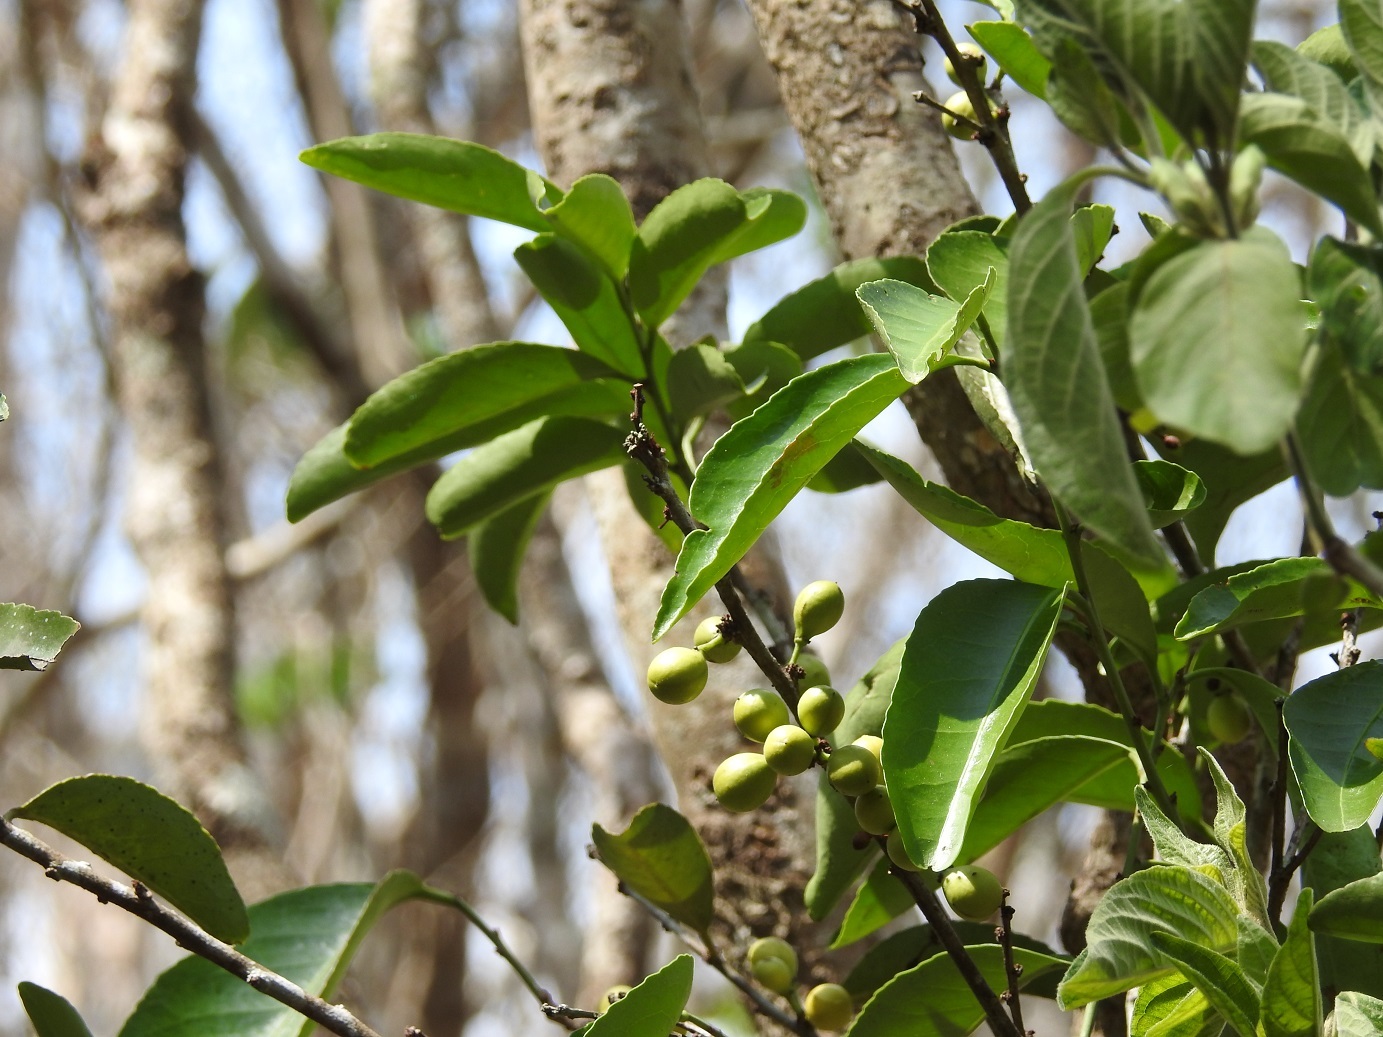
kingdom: Plantae
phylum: Tracheophyta
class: Magnoliopsida
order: Celastrales
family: Celastraceae
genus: Monteverdia
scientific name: Monteverdia stipitata
